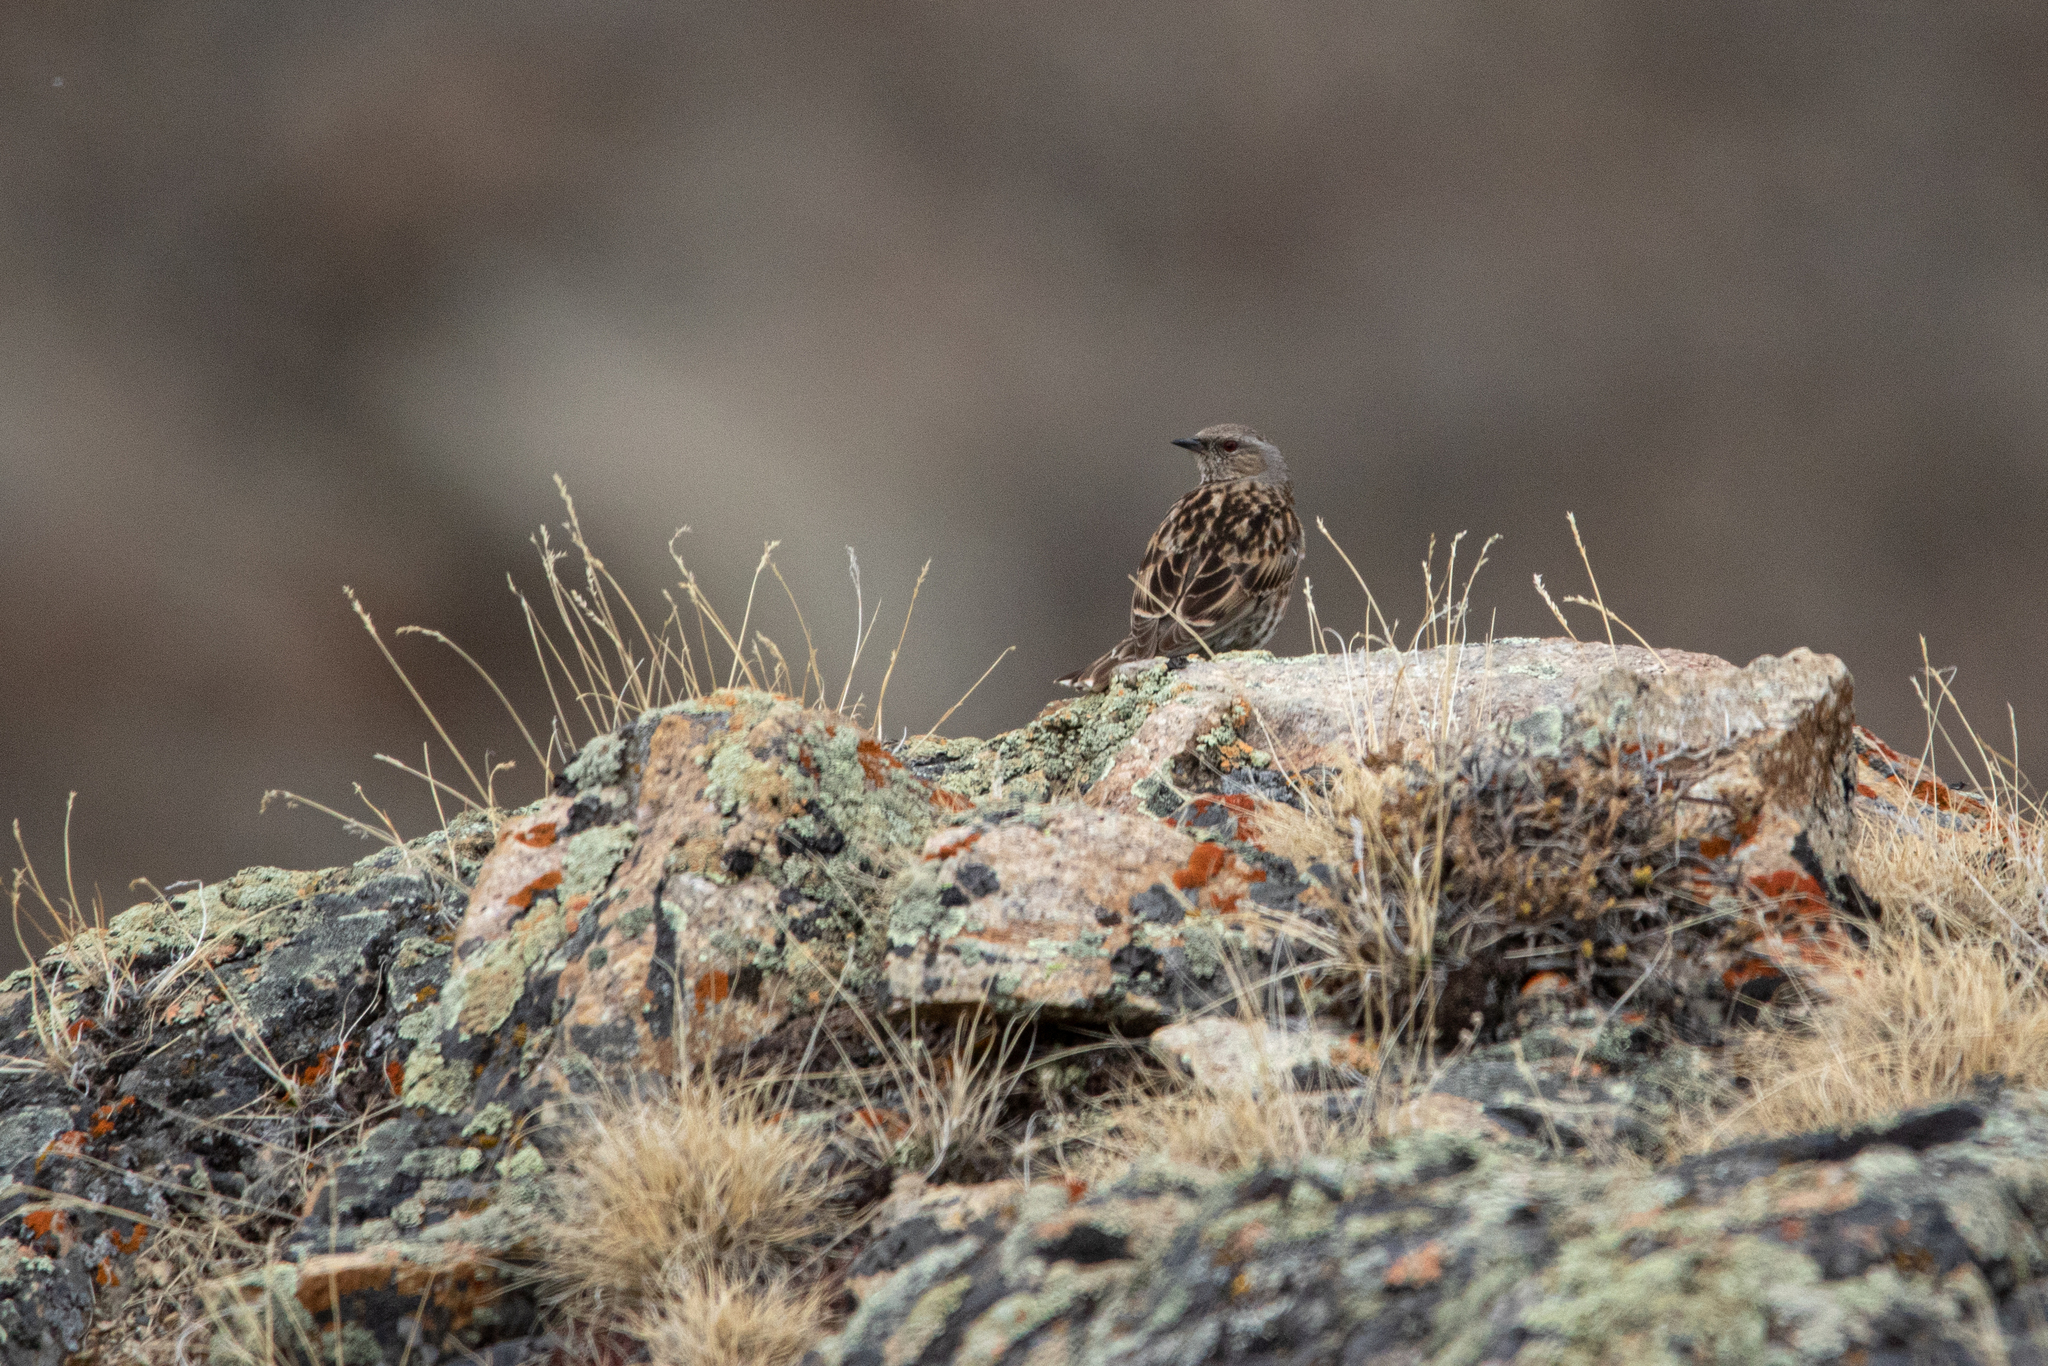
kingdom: Animalia
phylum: Chordata
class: Aves
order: Passeriformes
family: Prunellidae
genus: Prunella
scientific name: Prunella himalayana
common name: Altai accentor
